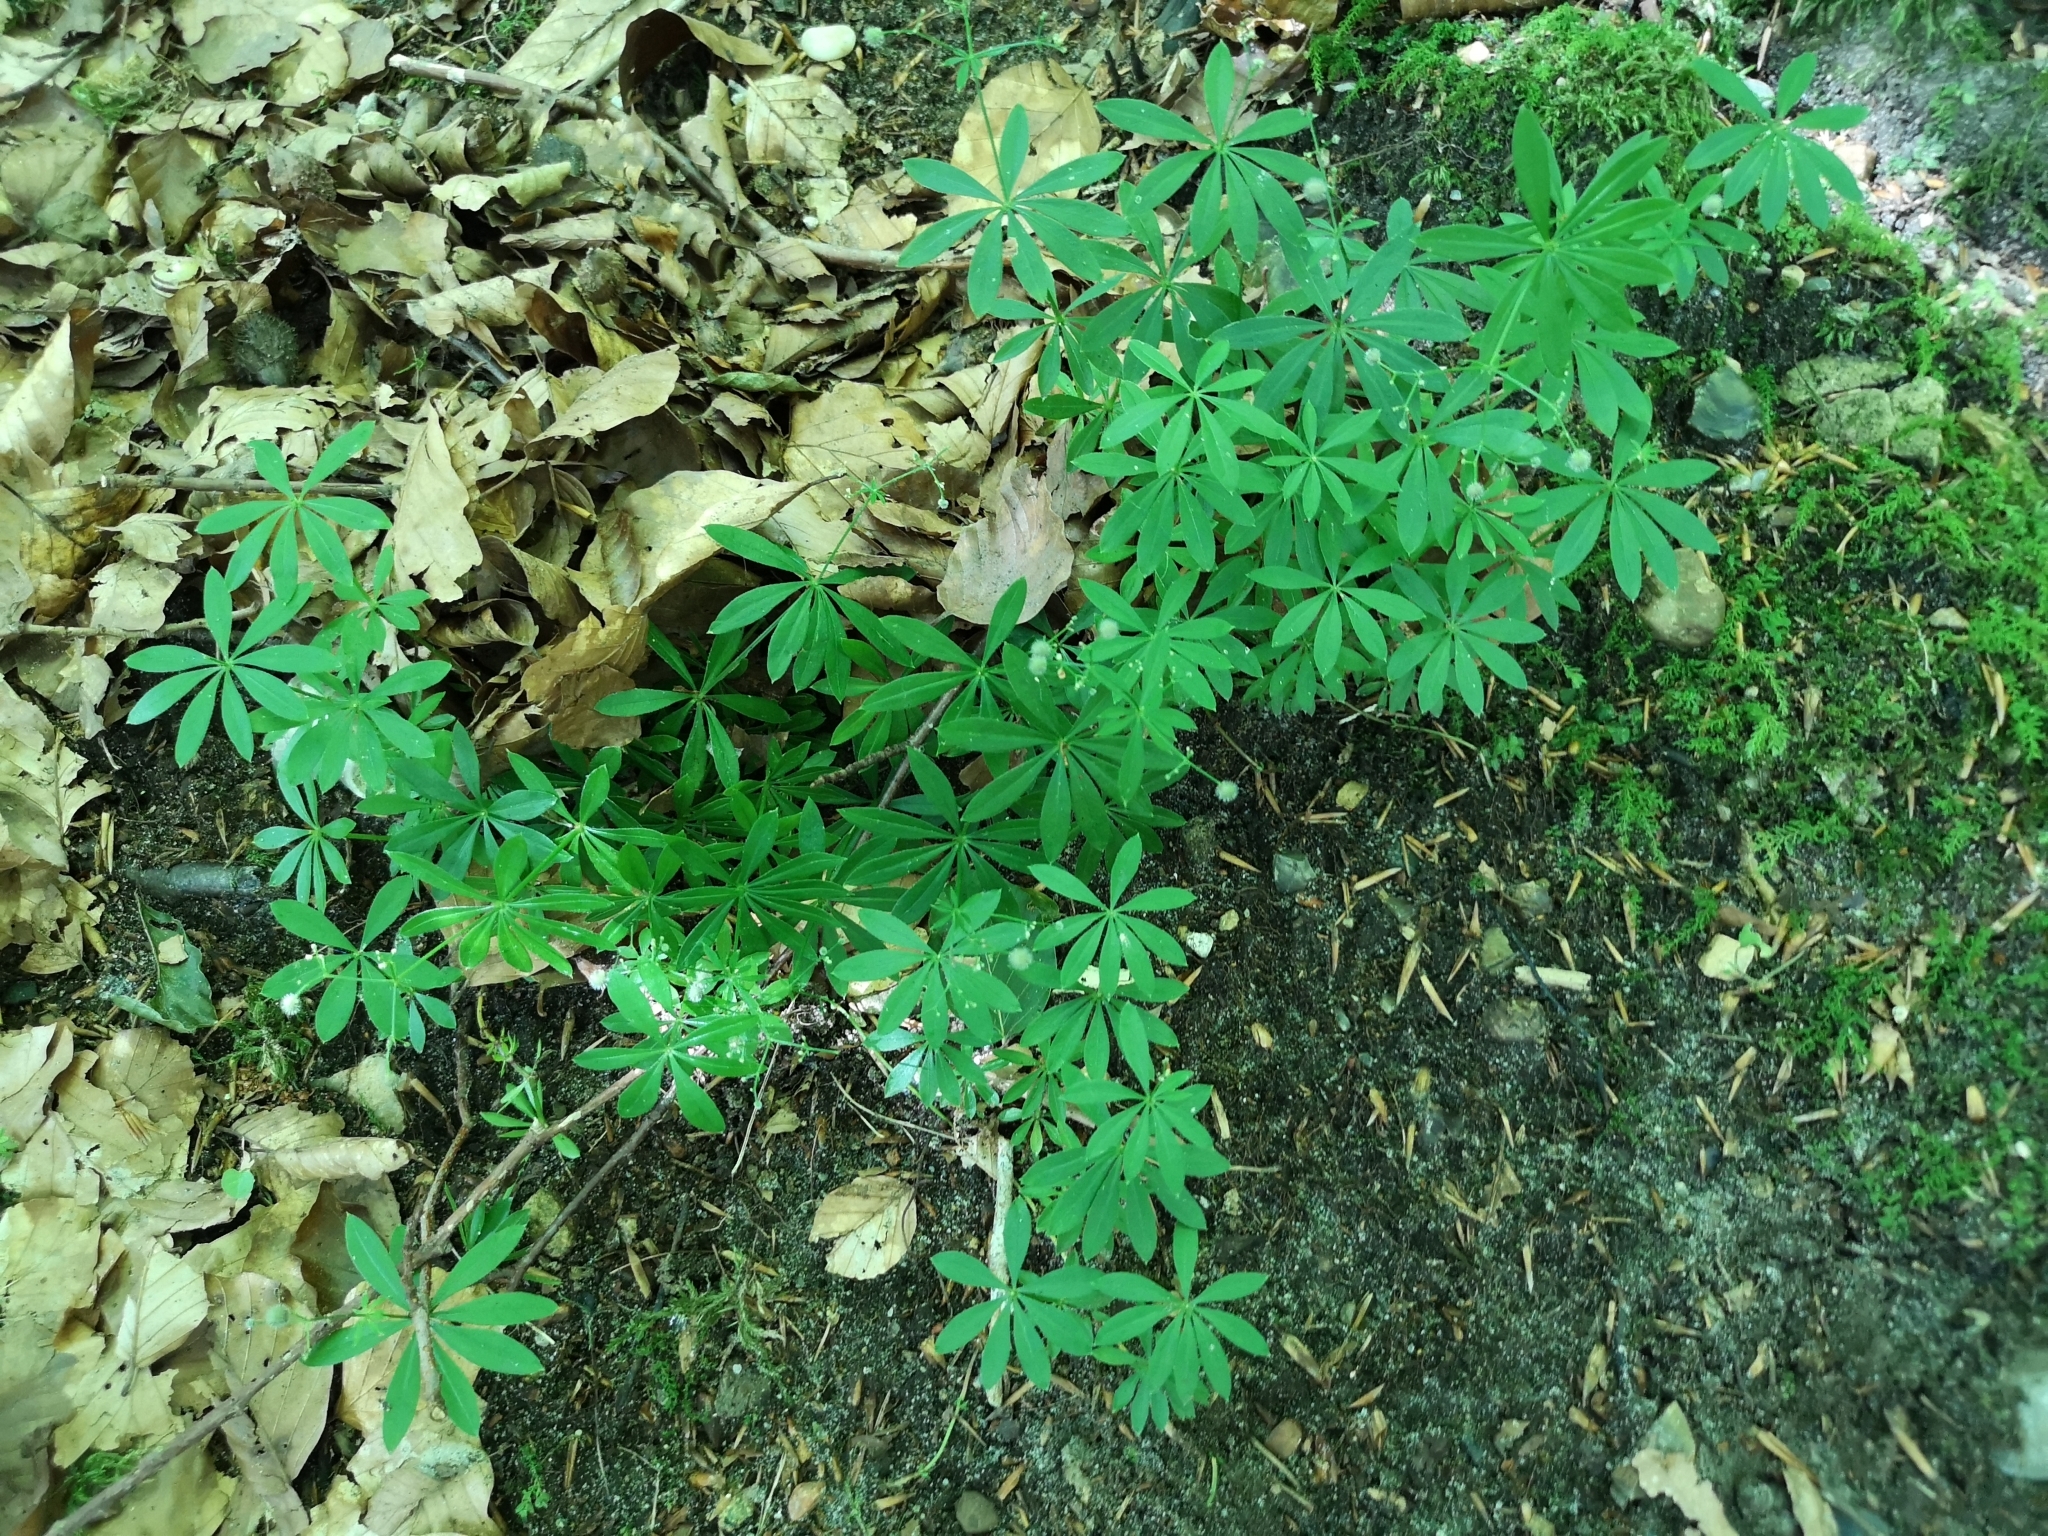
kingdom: Plantae
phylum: Tracheophyta
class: Magnoliopsida
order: Gentianales
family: Rubiaceae
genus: Galium
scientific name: Galium odoratum
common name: Sweet woodruff
